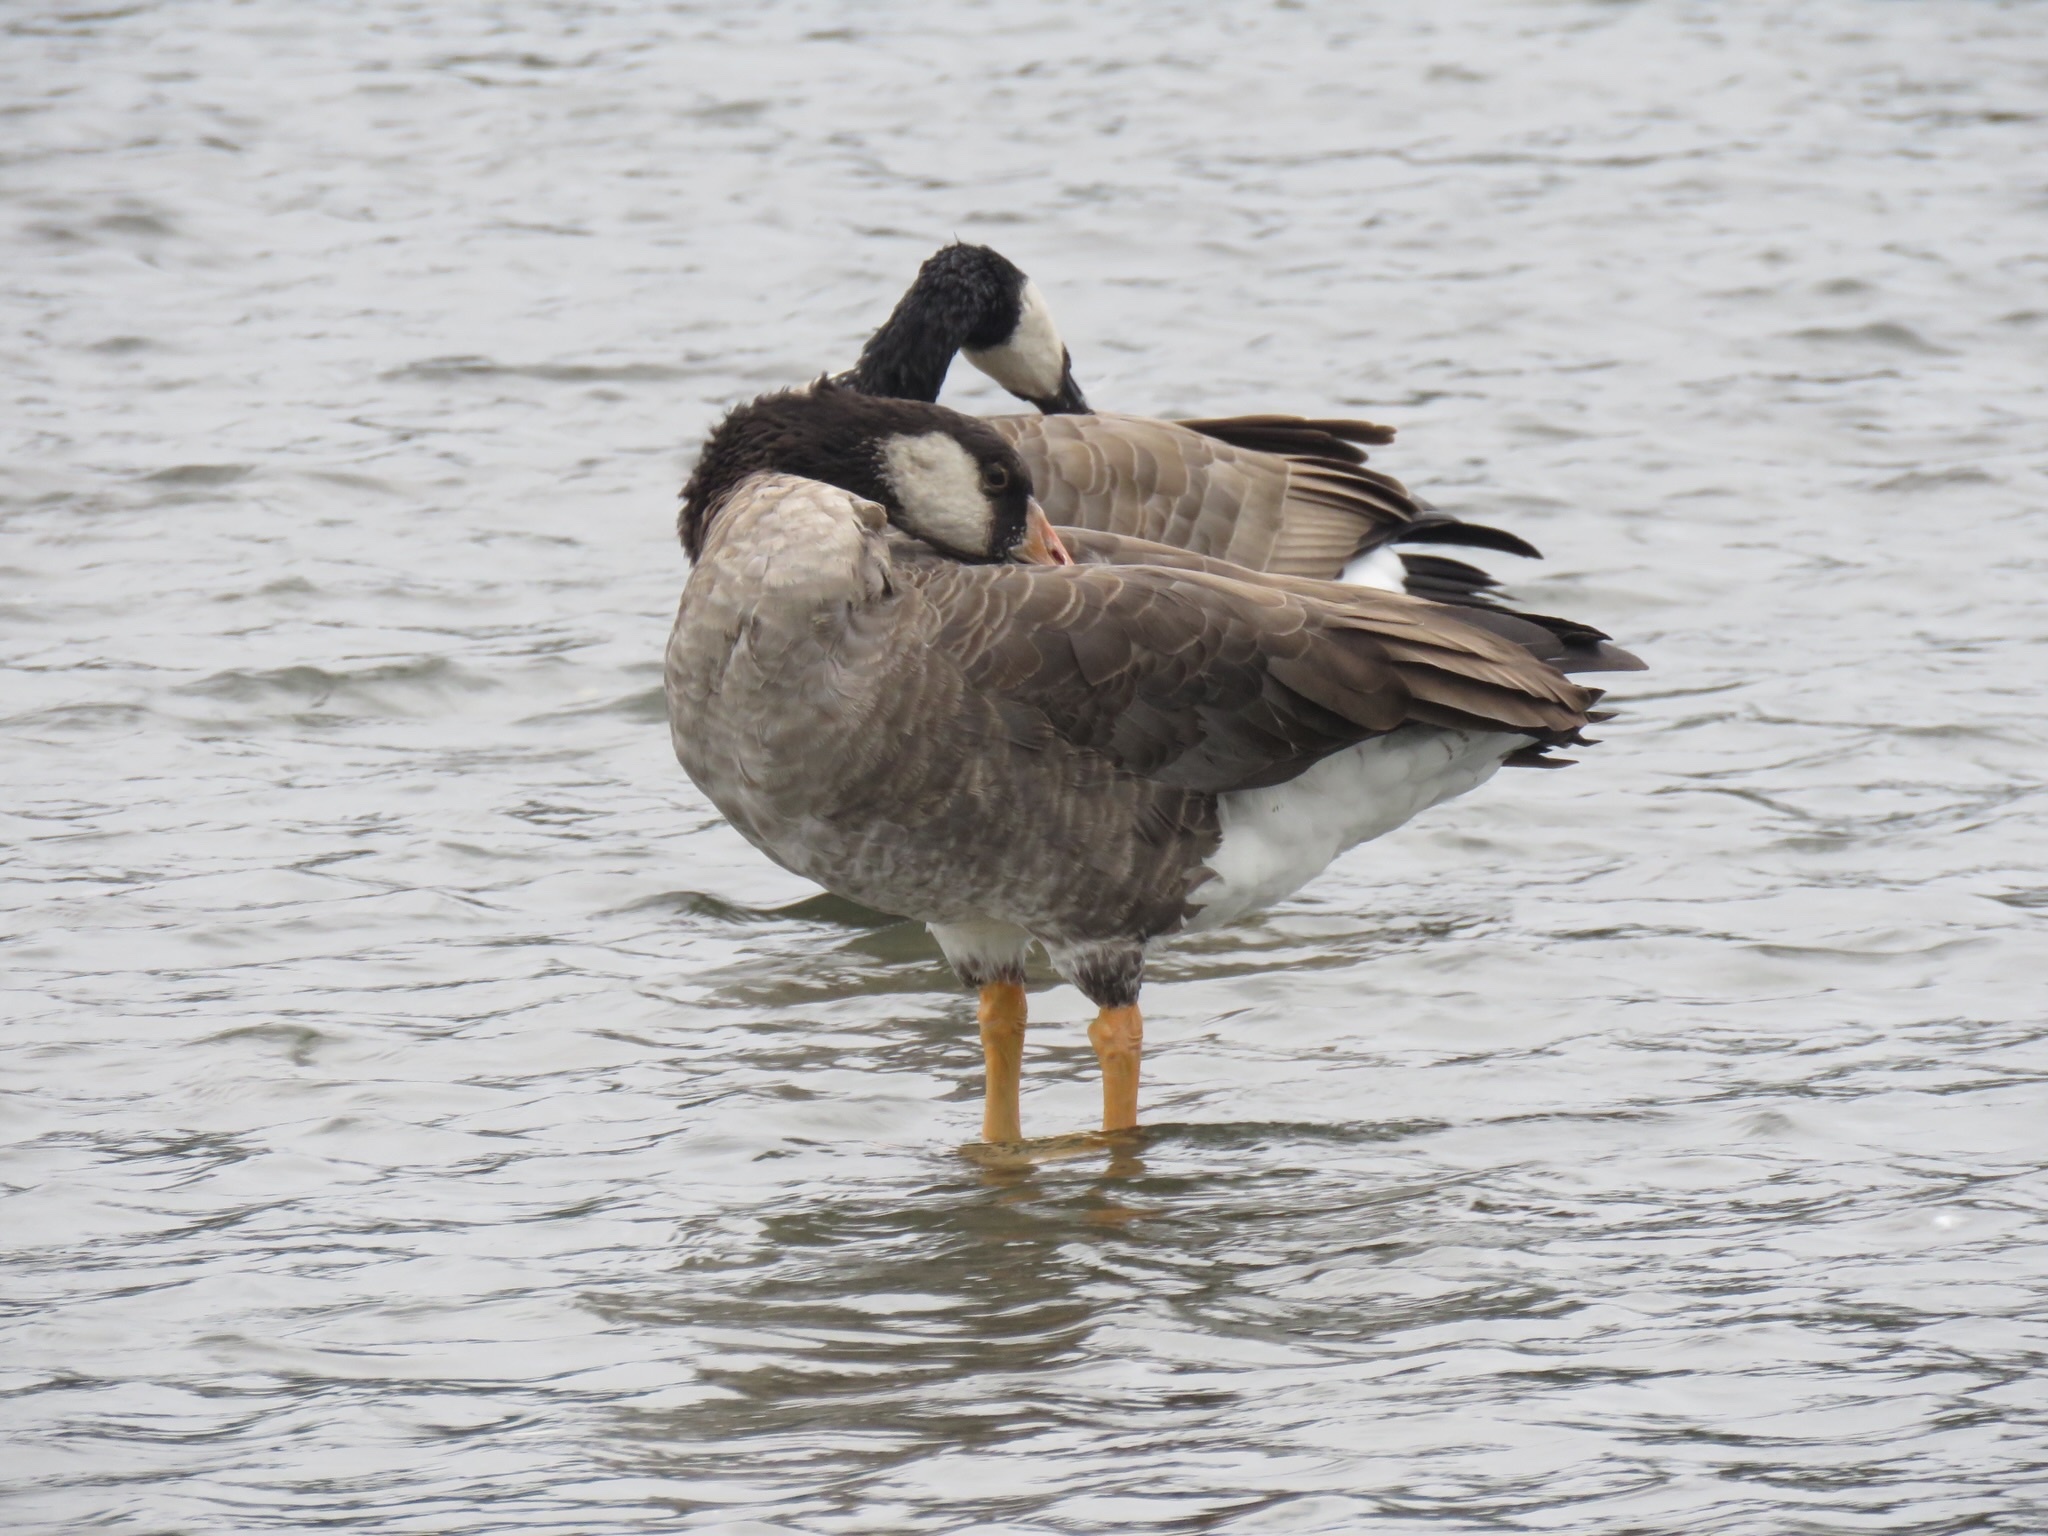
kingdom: Animalia
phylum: Chordata
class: Aves
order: Anseriformes
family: Anatidae
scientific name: Anatidae
